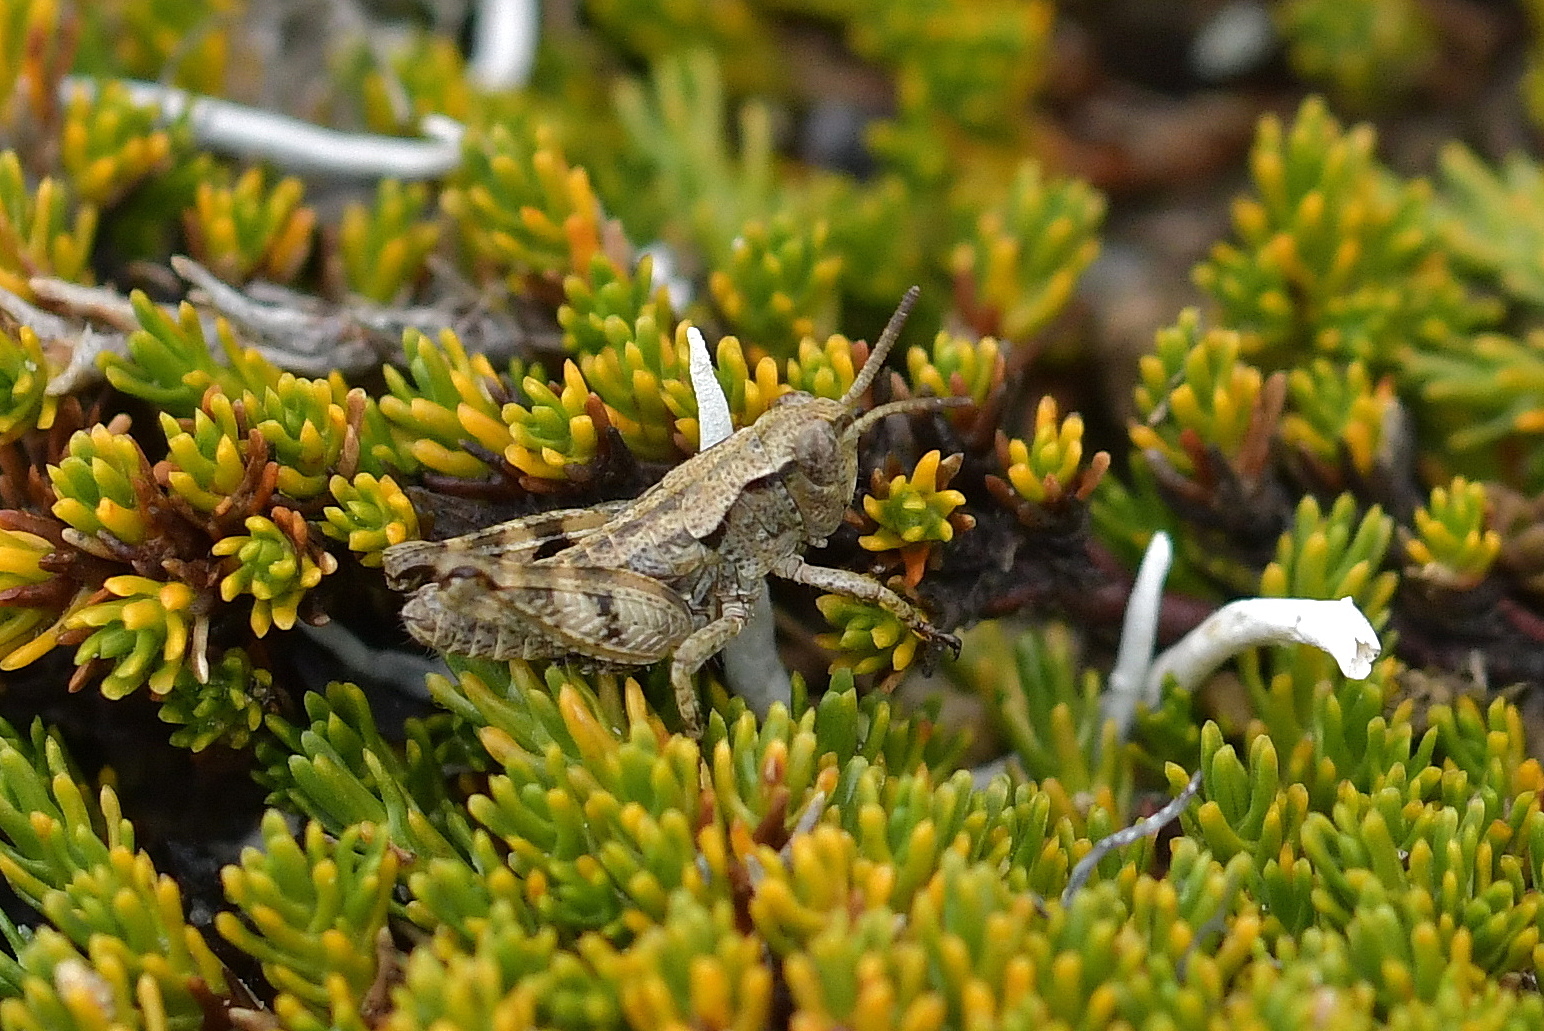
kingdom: Animalia
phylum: Arthropoda
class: Insecta
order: Orthoptera
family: Acrididae
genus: Sigaus
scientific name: Sigaus australis
